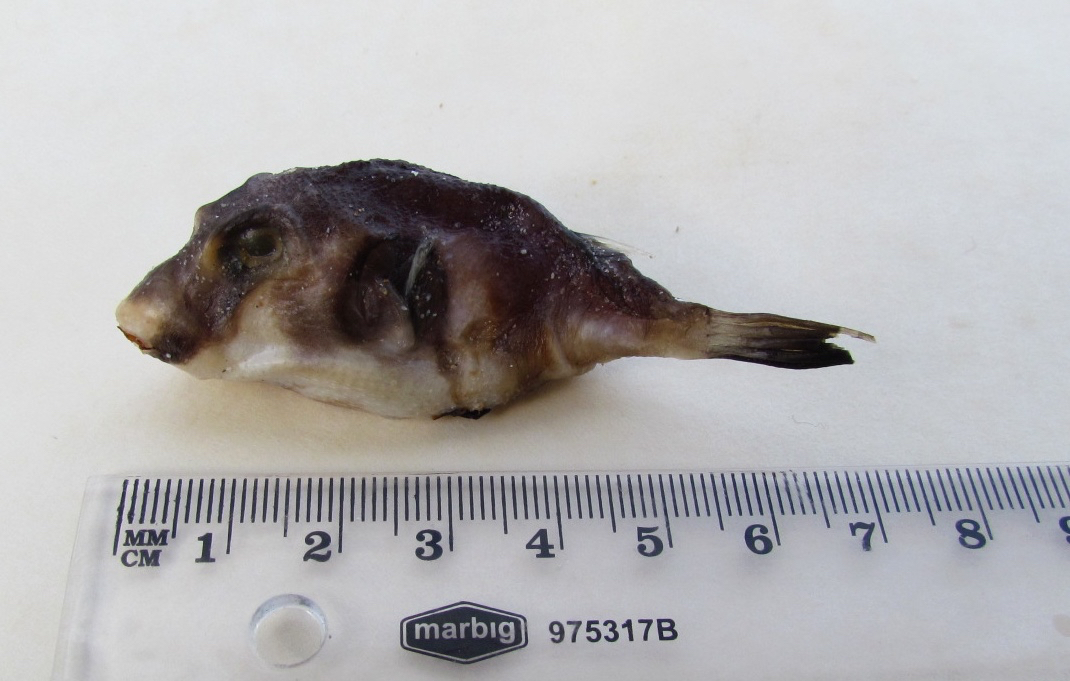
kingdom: Animalia
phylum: Chordata
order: Tetraodontiformes
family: Tetraodontidae
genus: Omegophora
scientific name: Omegophora armilla
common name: Ringed pufferfish
